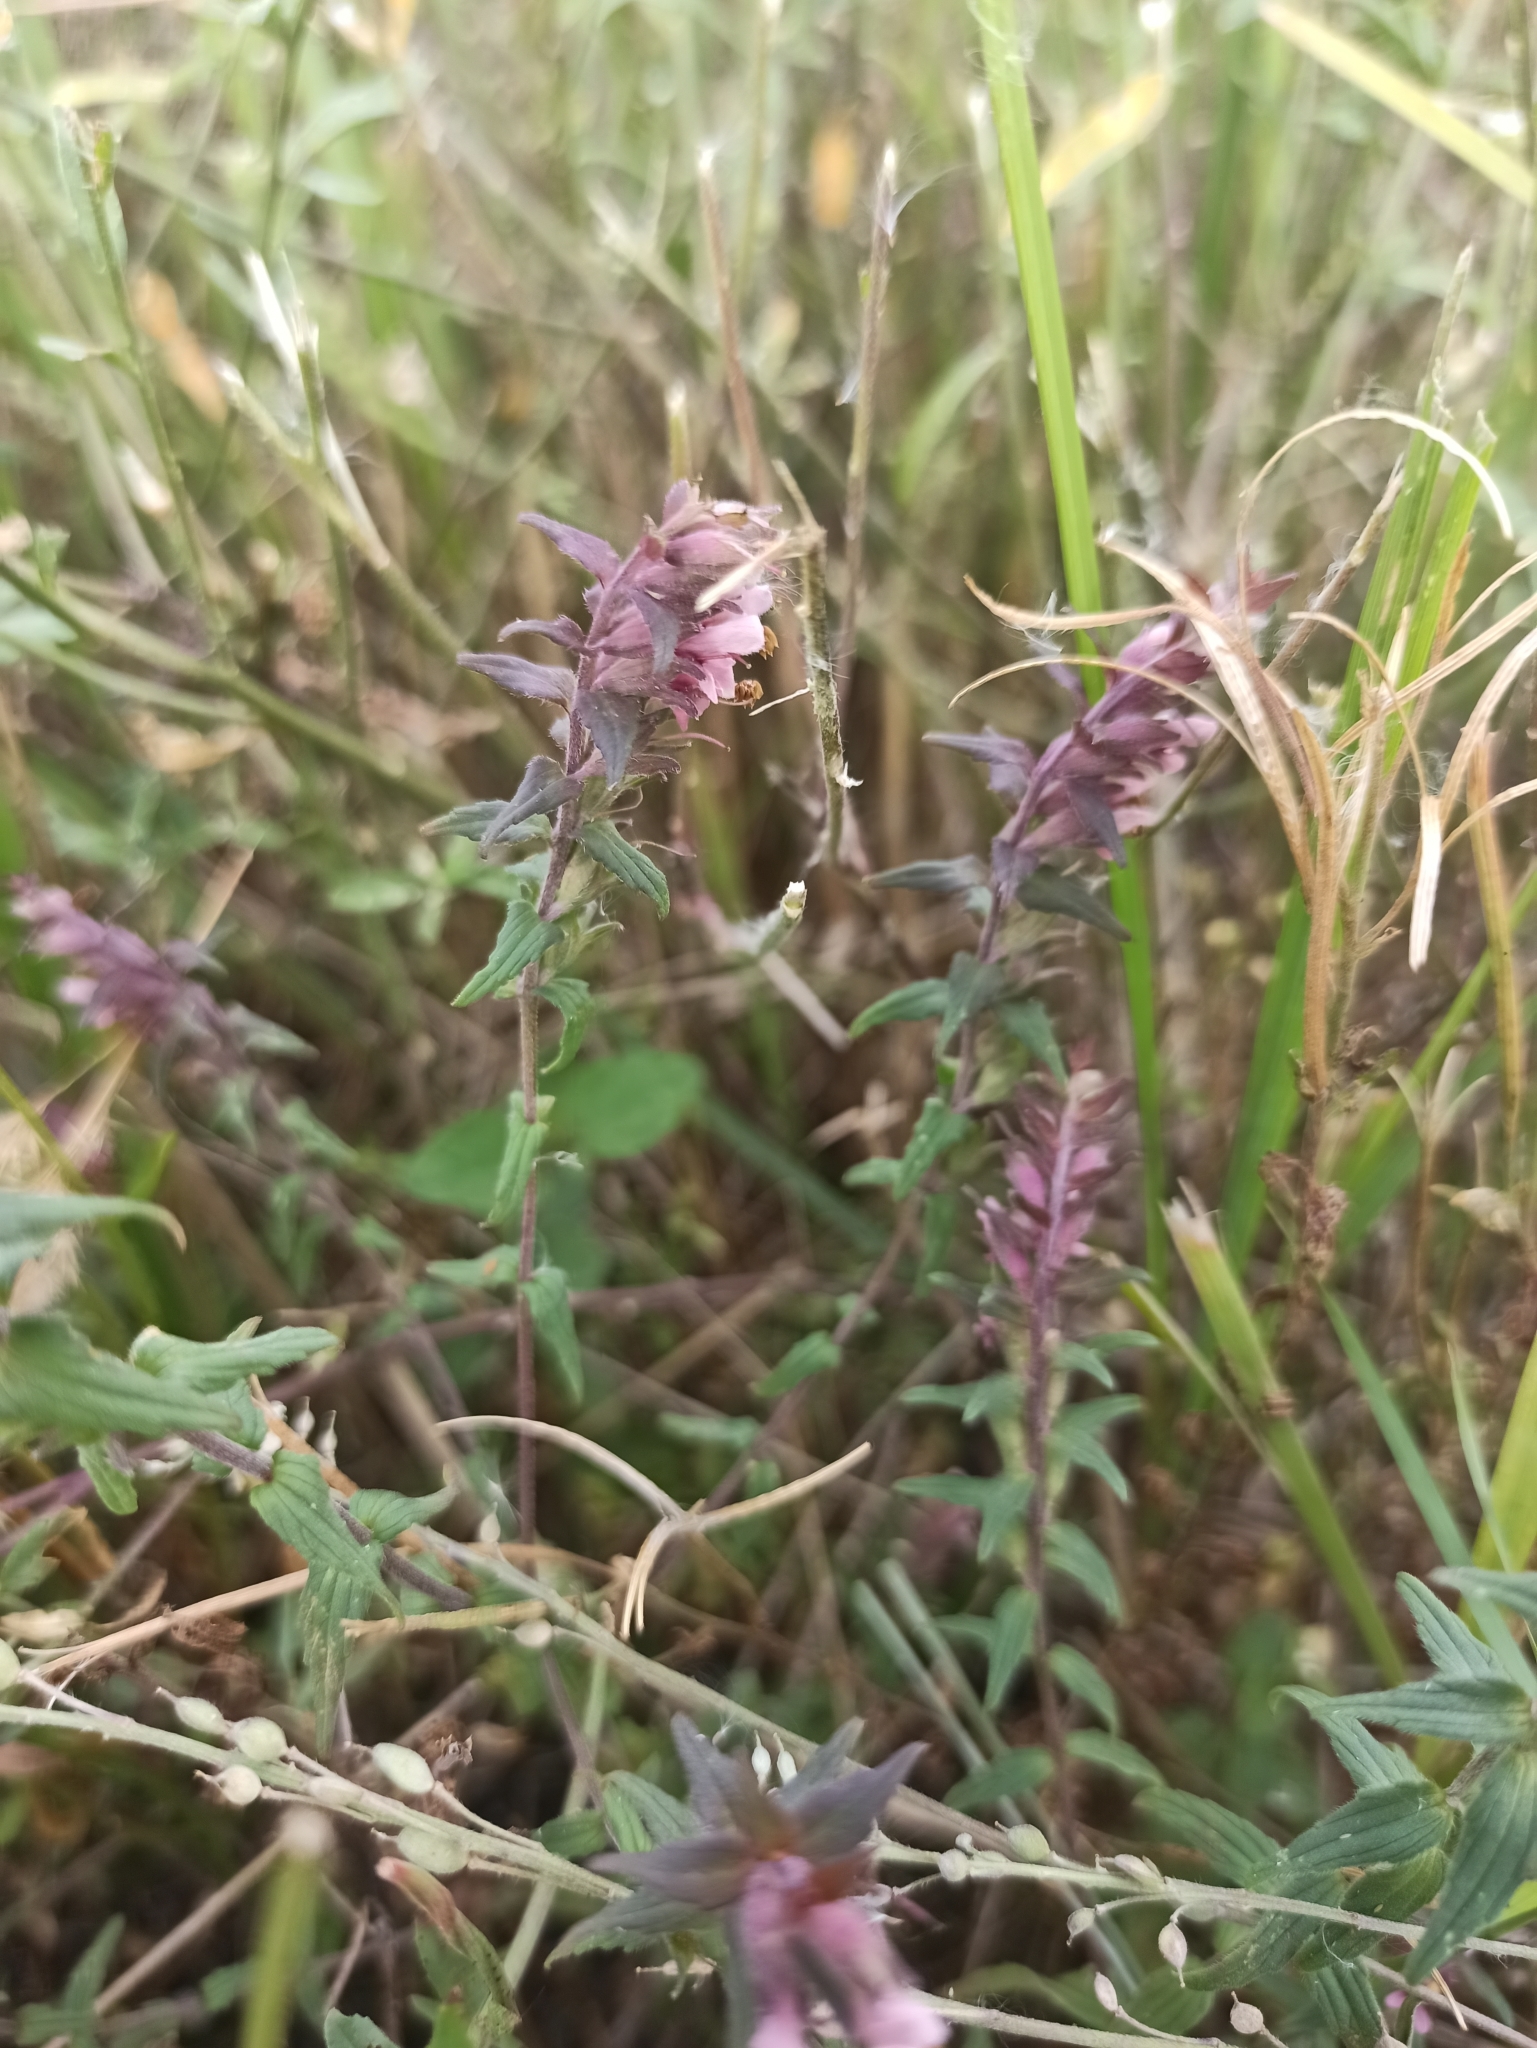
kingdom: Plantae
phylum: Tracheophyta
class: Magnoliopsida
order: Lamiales
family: Orobanchaceae
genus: Odontites
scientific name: Odontites vulgaris
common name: Broomrape
